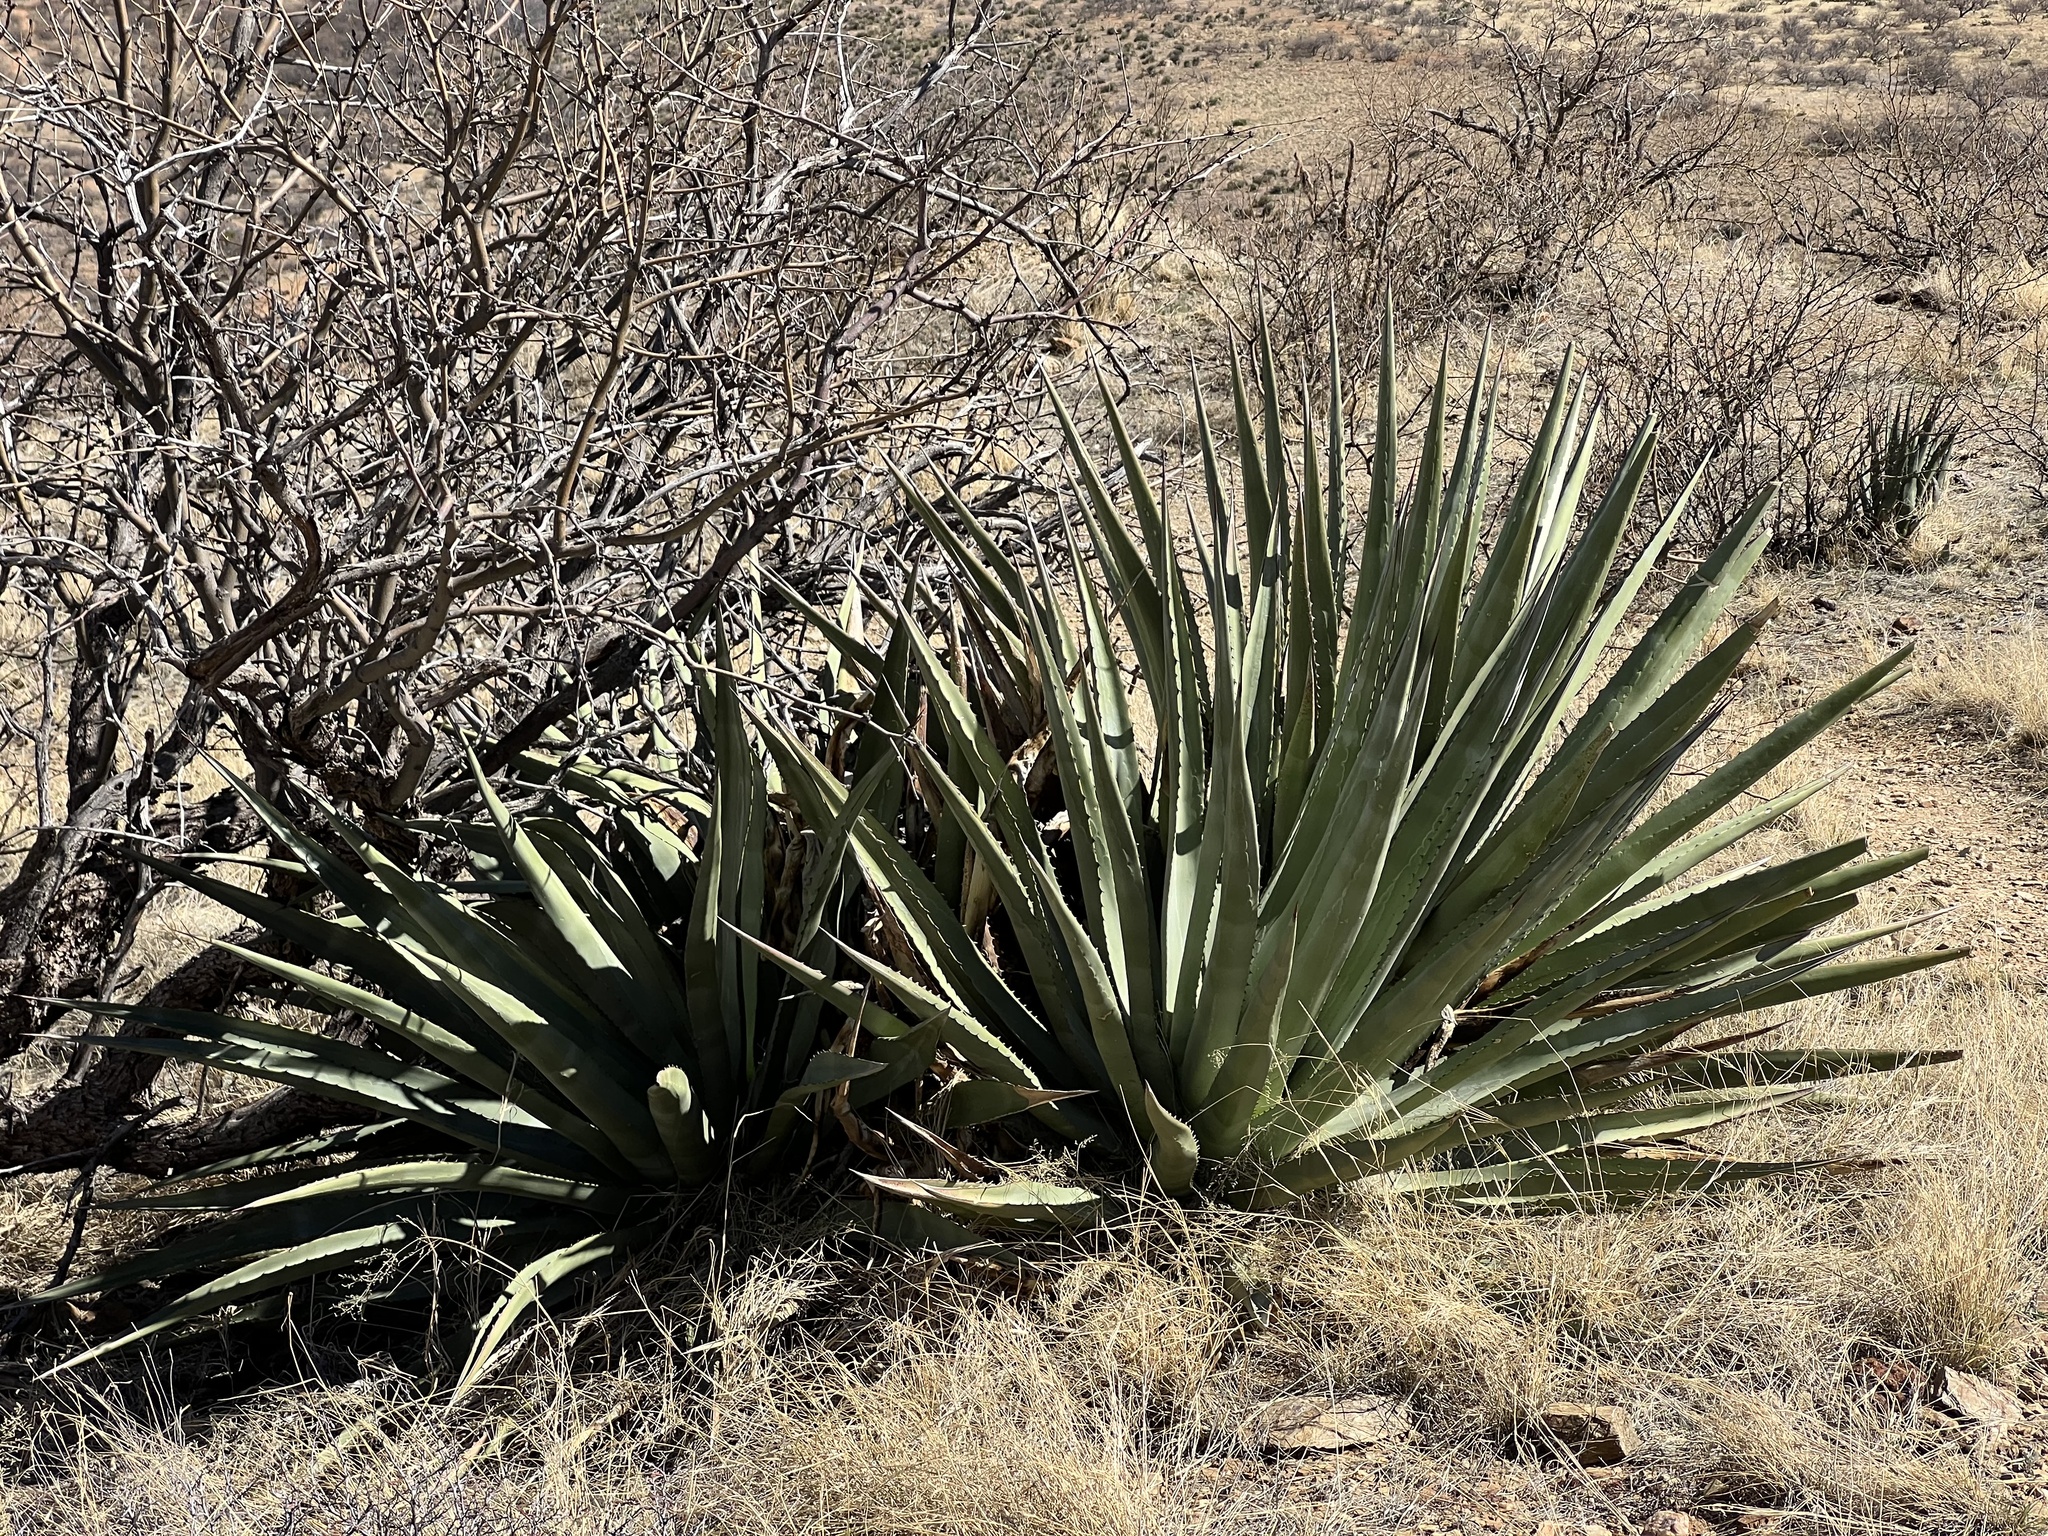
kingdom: Plantae
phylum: Tracheophyta
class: Liliopsida
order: Asparagales
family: Asparagaceae
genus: Agave
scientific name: Agave palmeri
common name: Palmer agave
